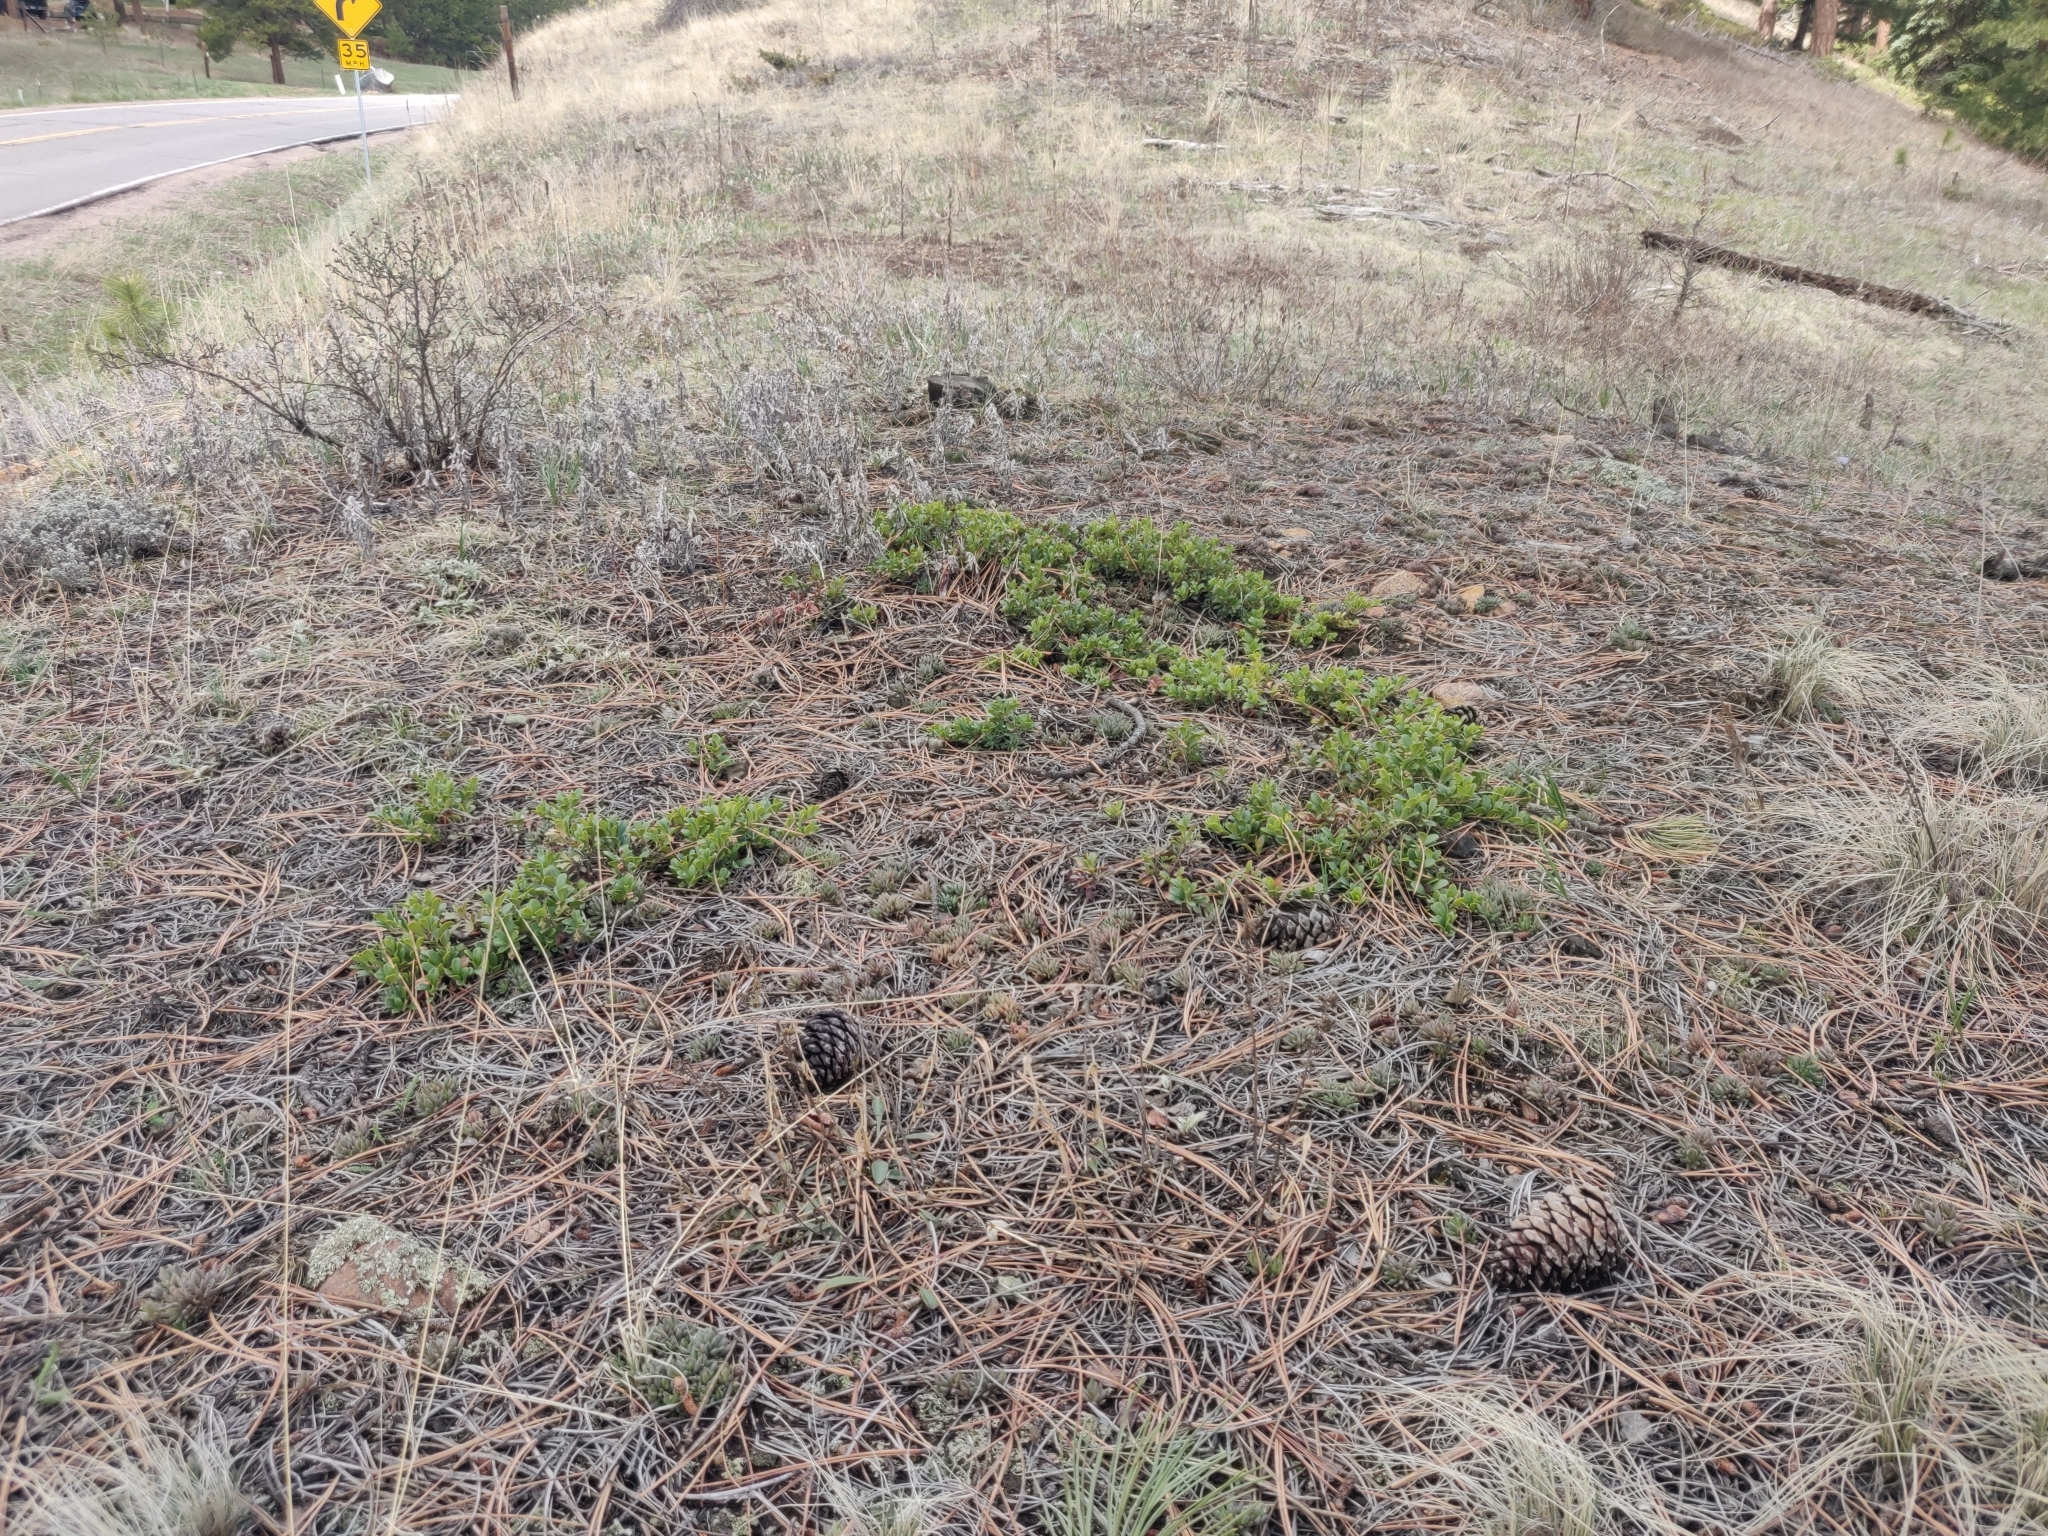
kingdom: Plantae
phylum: Tracheophyta
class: Magnoliopsida
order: Ericales
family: Ericaceae
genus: Arctostaphylos
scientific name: Arctostaphylos uva-ursi
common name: Bearberry
